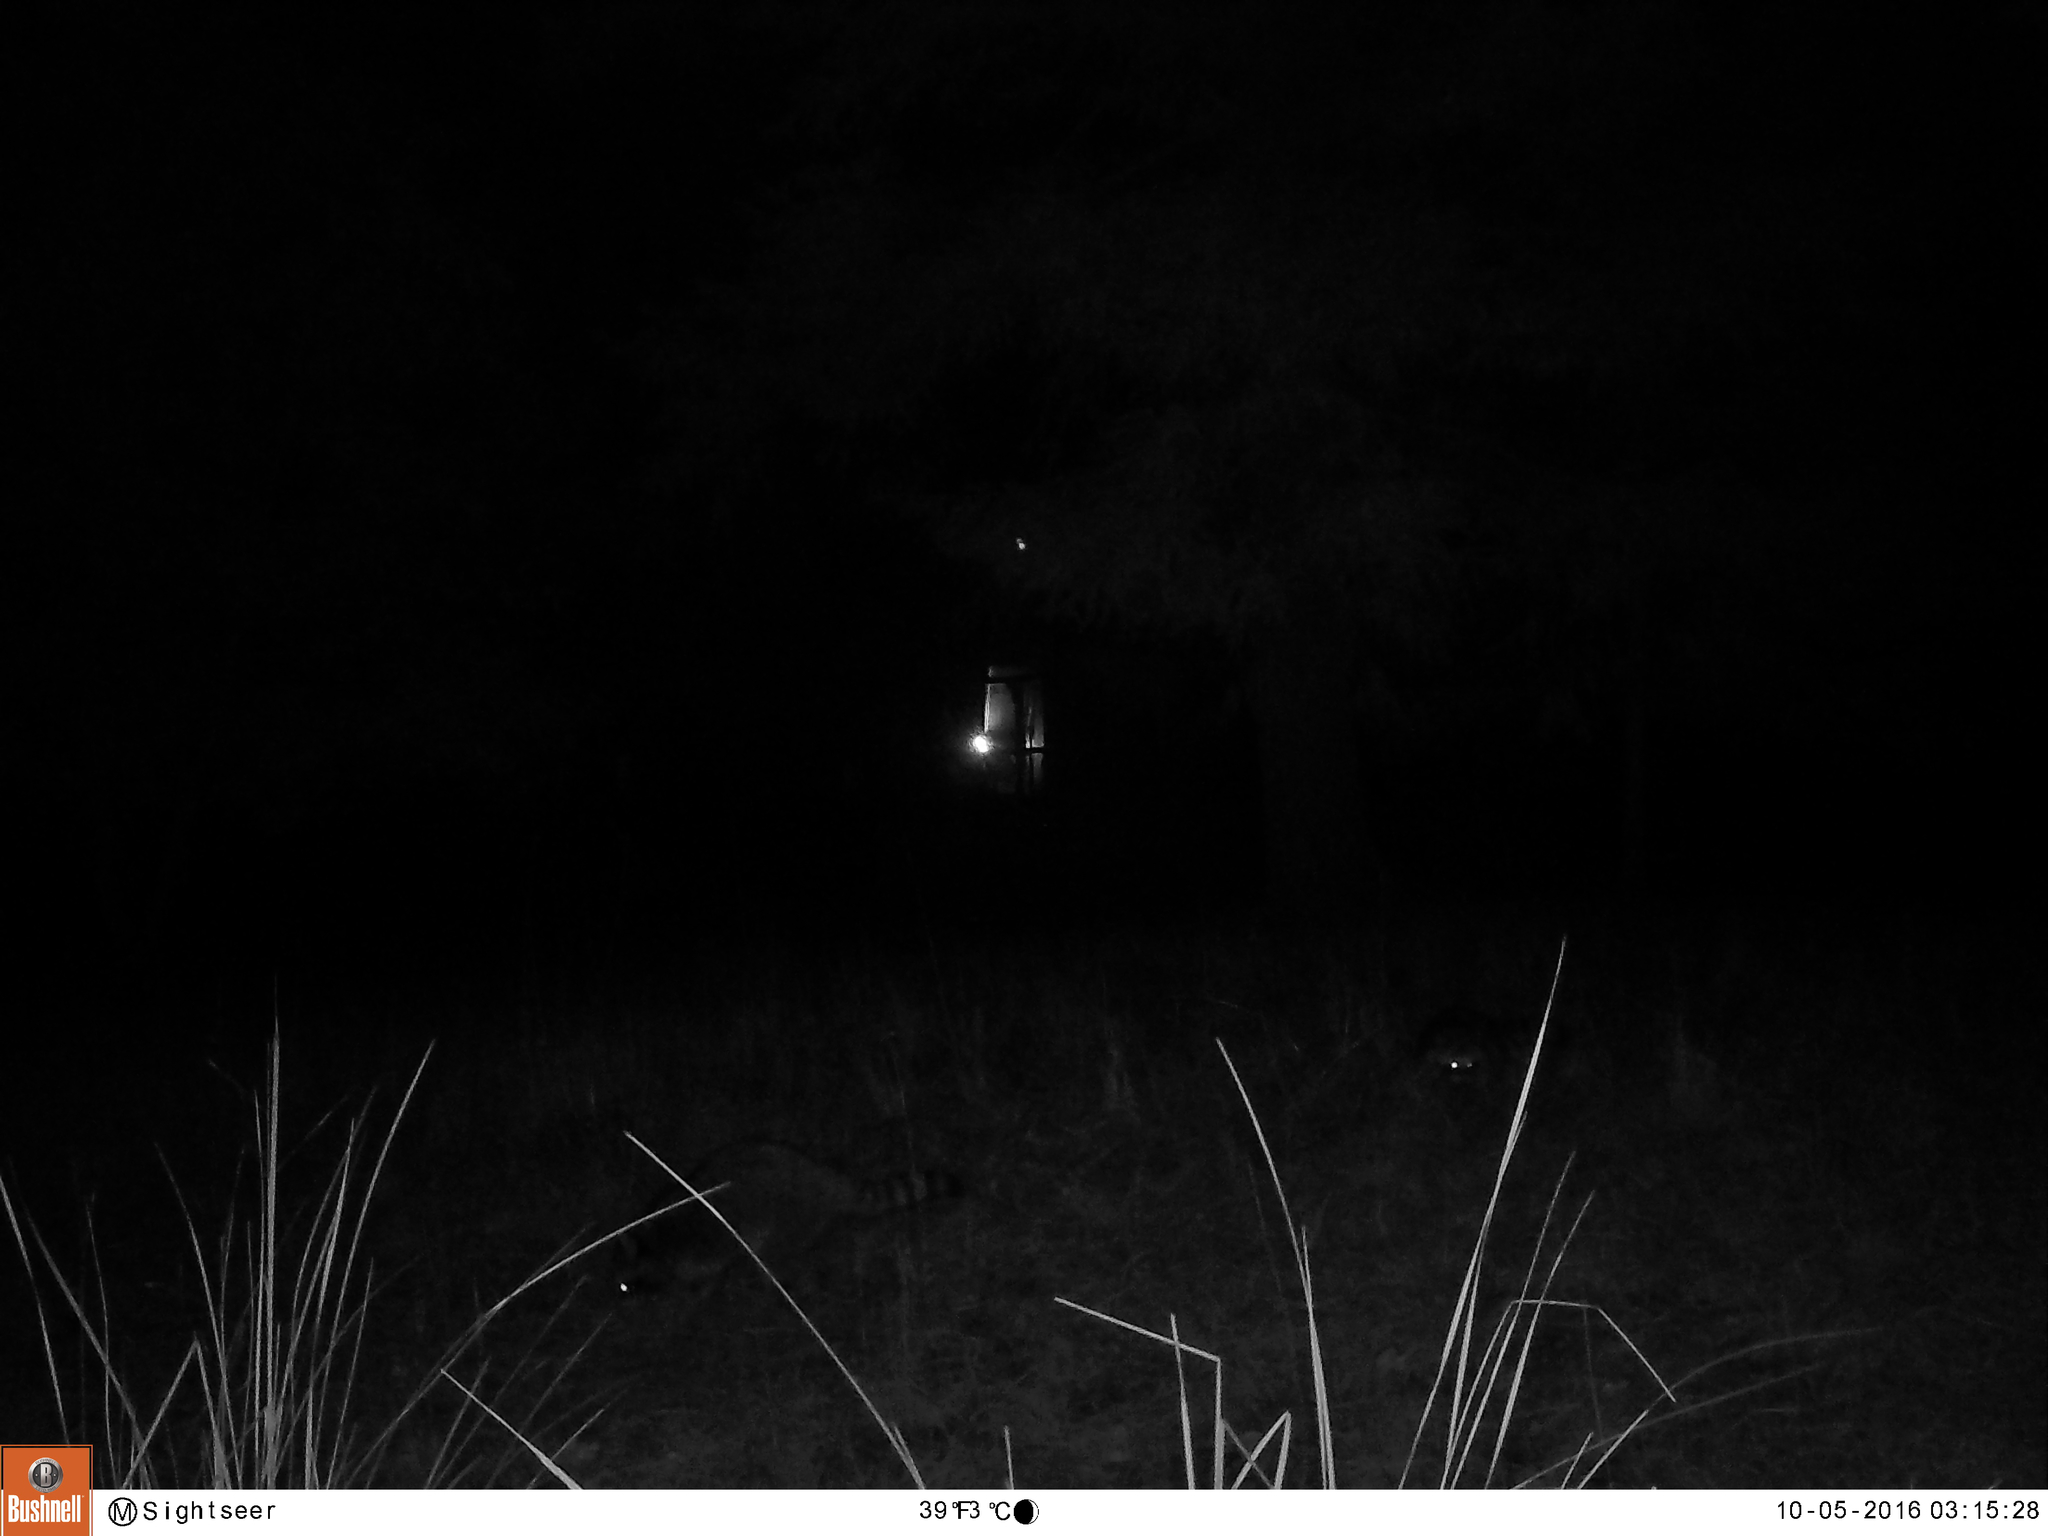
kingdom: Animalia
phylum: Chordata
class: Mammalia
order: Carnivora
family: Procyonidae
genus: Procyon
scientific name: Procyon lotor
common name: Raccoon
